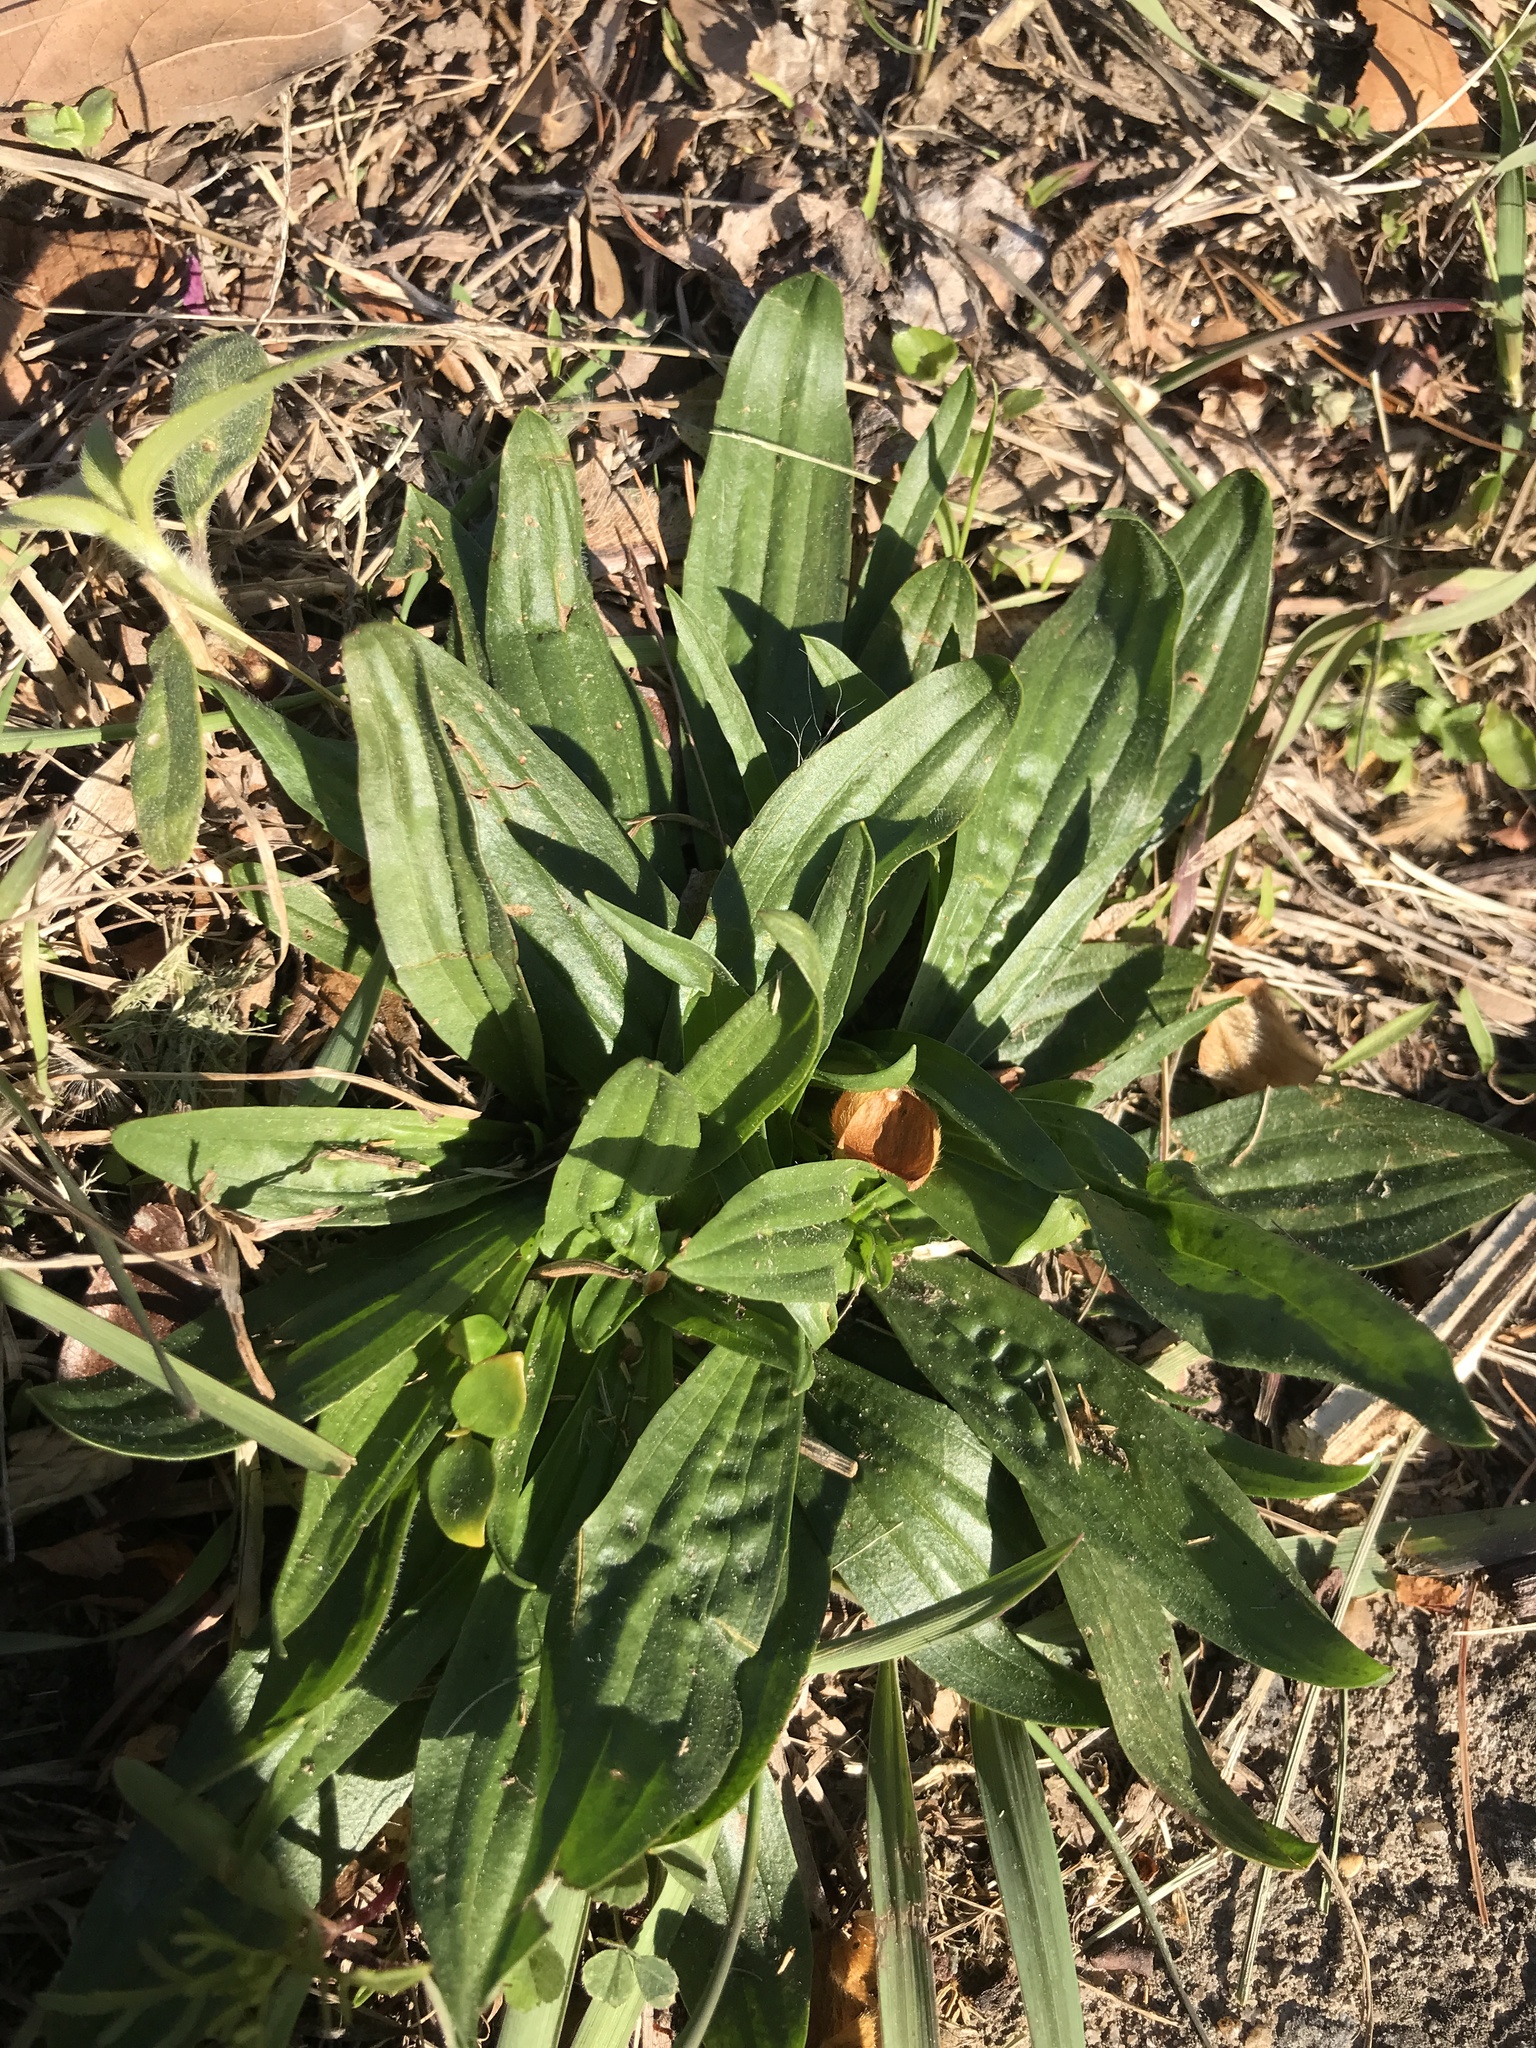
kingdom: Plantae
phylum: Tracheophyta
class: Magnoliopsida
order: Lamiales
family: Plantaginaceae
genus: Plantago
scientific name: Plantago lanceolata
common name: Ribwort plantain
